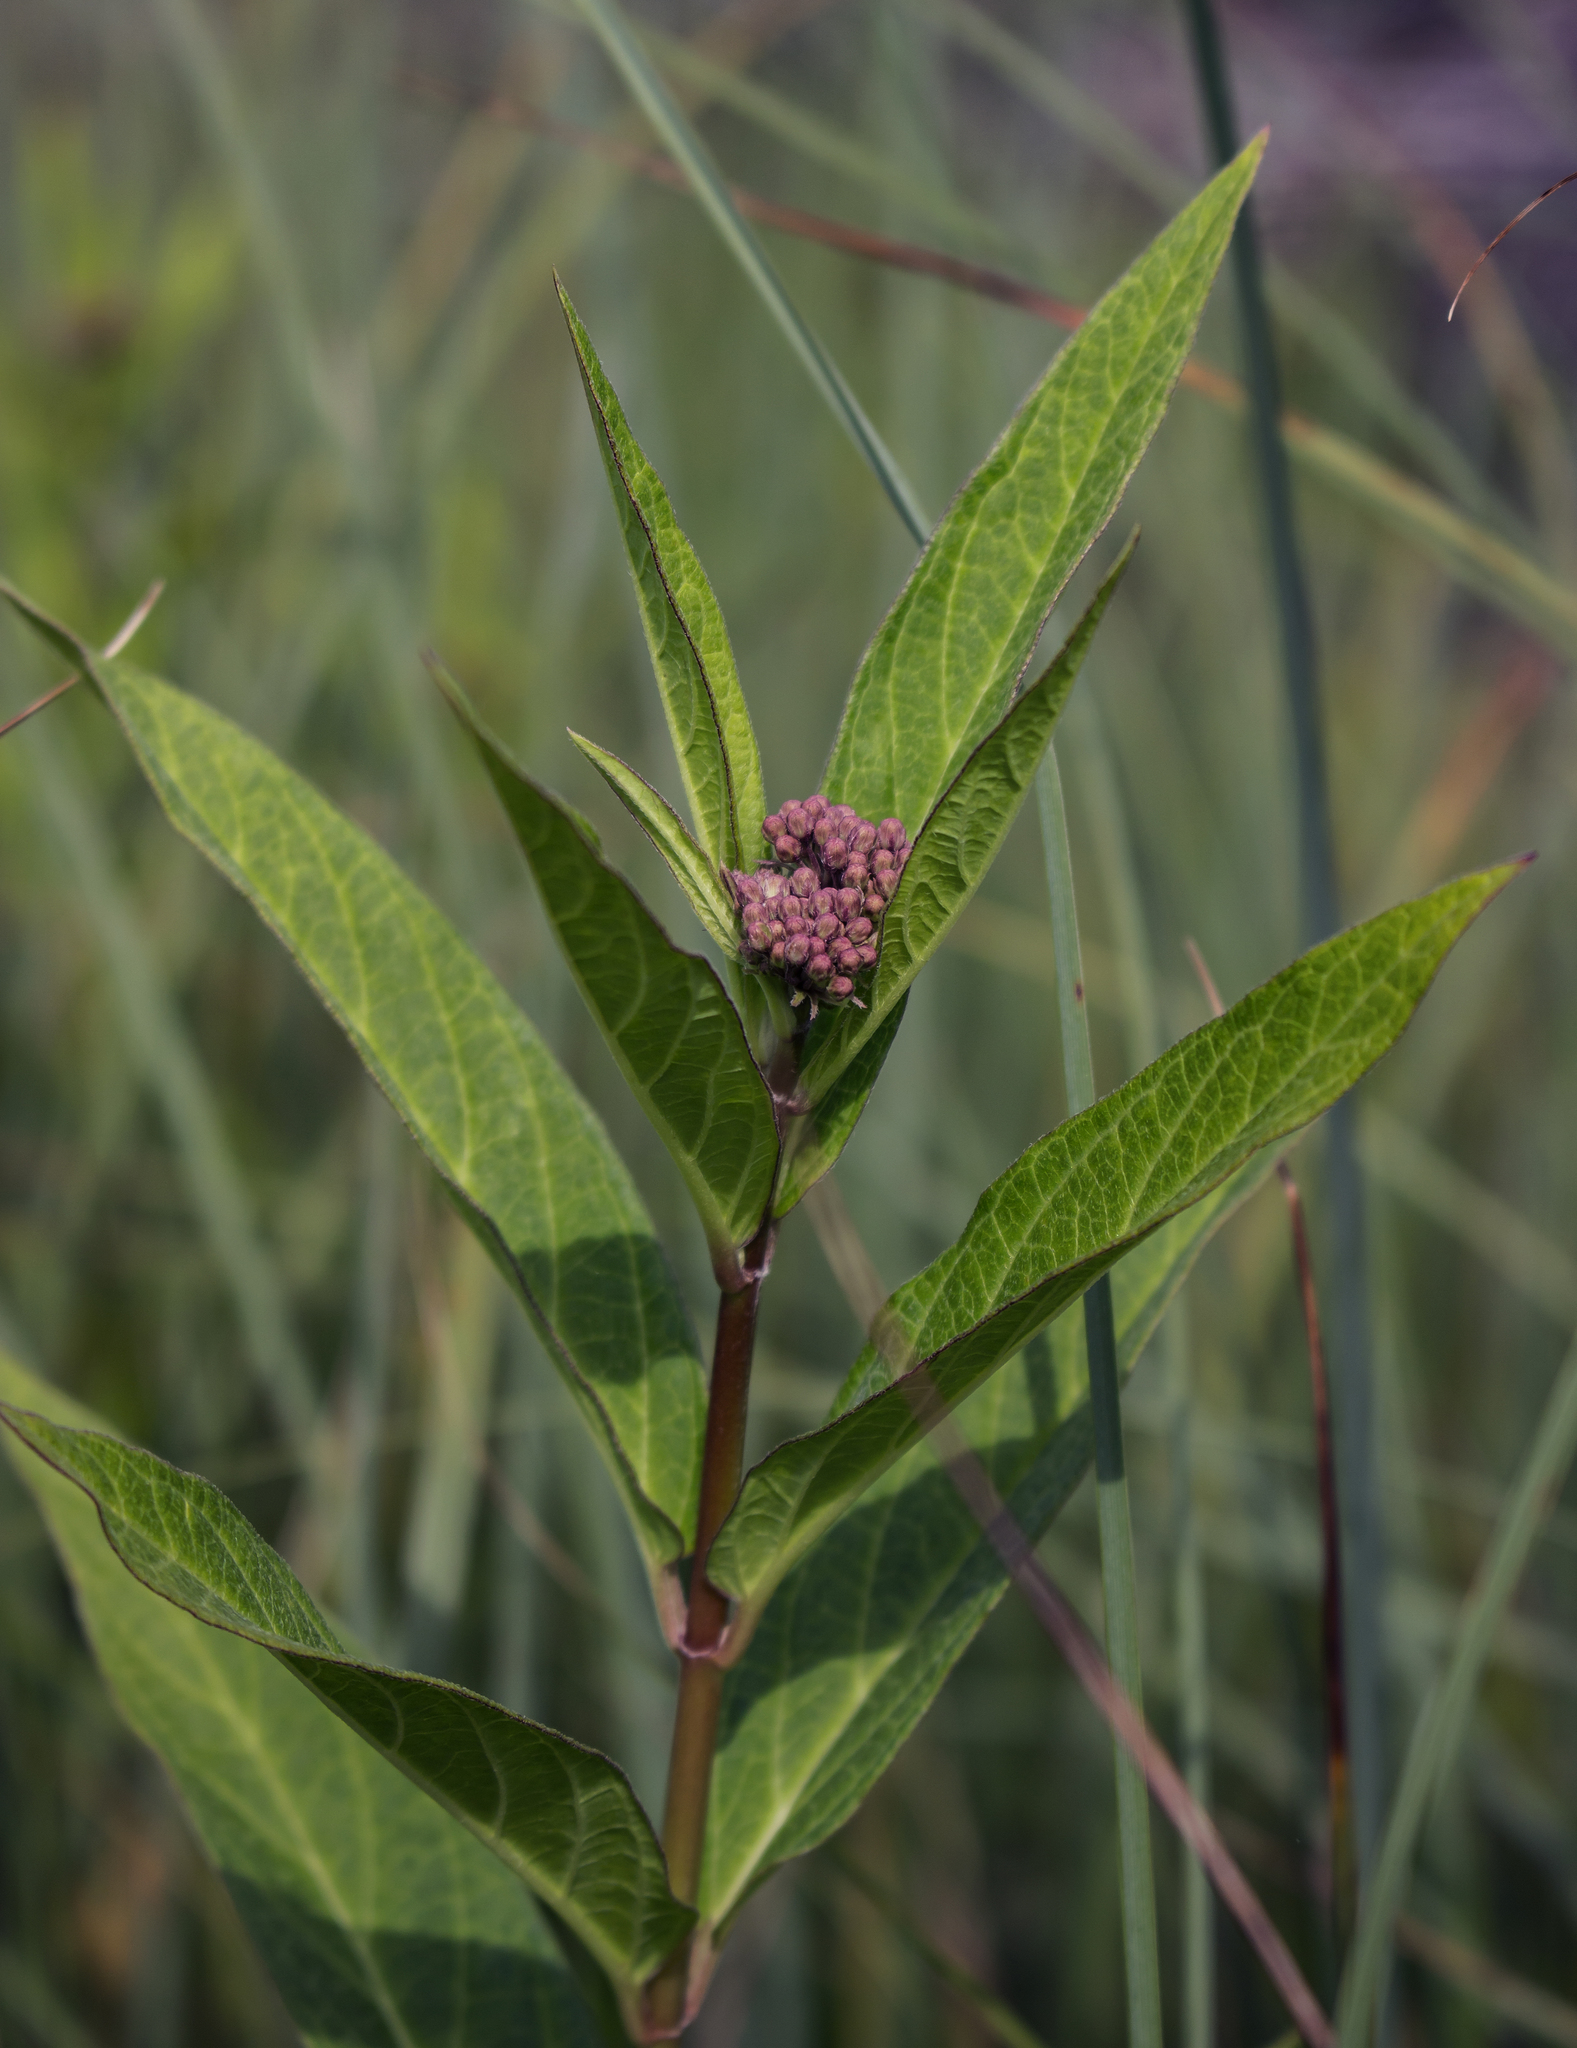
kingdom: Plantae
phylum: Tracheophyta
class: Magnoliopsida
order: Gentianales
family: Apocynaceae
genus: Asclepias
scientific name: Asclepias incarnata
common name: Swamp milkweed
